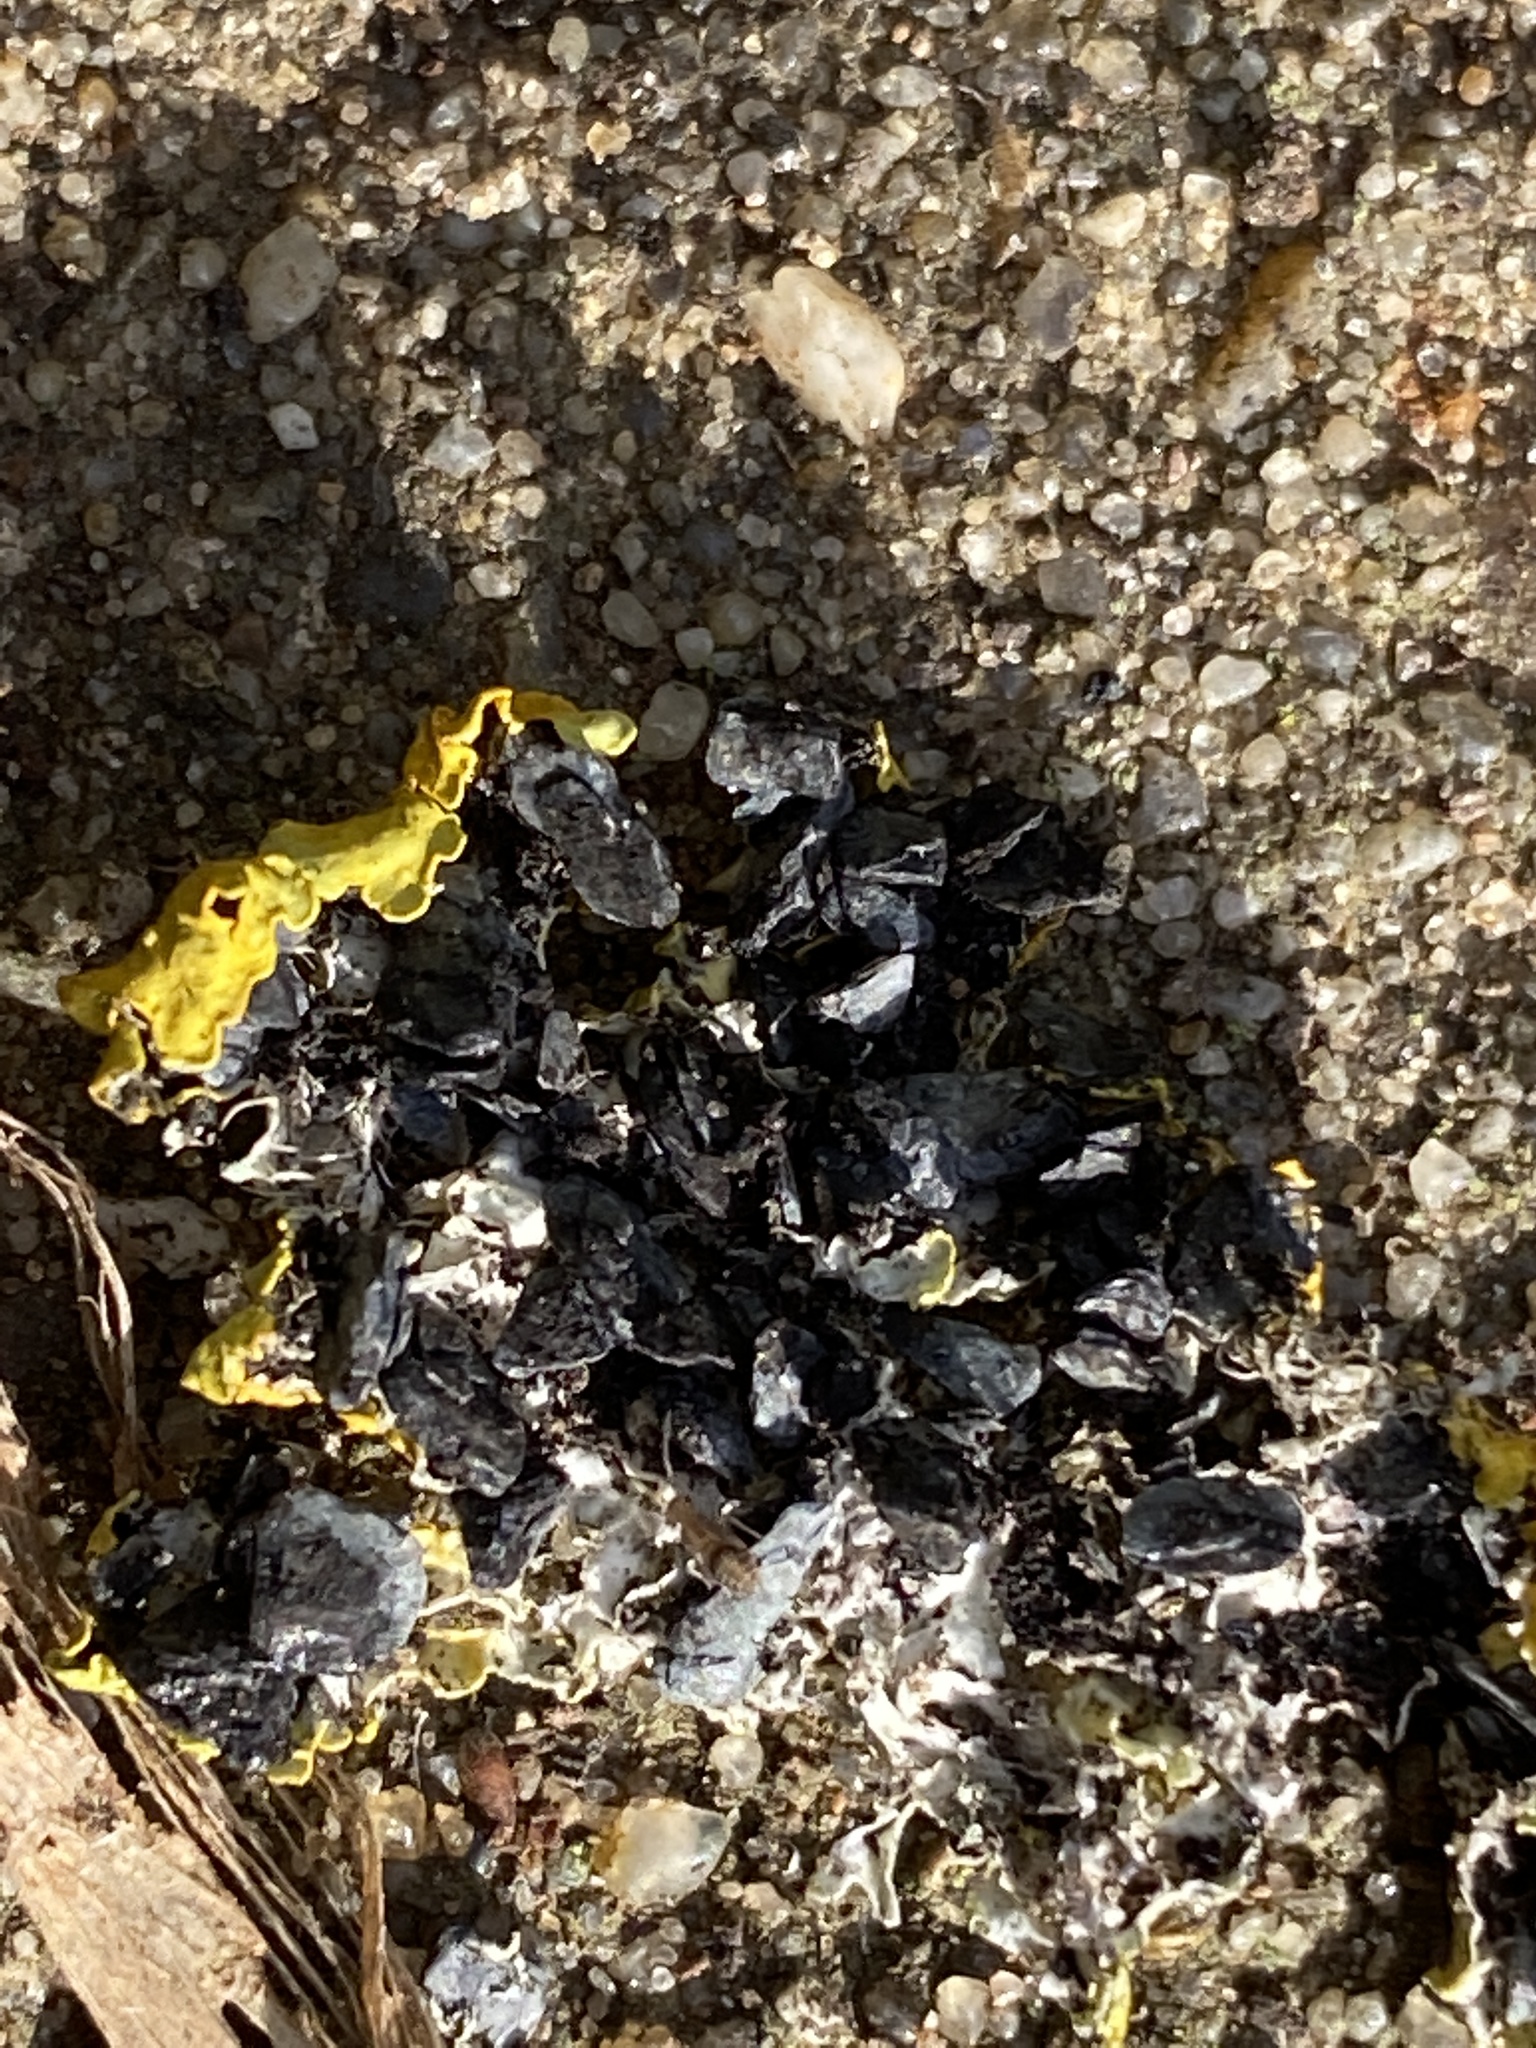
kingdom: Fungi
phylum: Ascomycota
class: Lecanoromycetes
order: Teloschistales
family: Teloschistaceae
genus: Xanthoria
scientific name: Xanthoria parietina
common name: Common orange lichen
